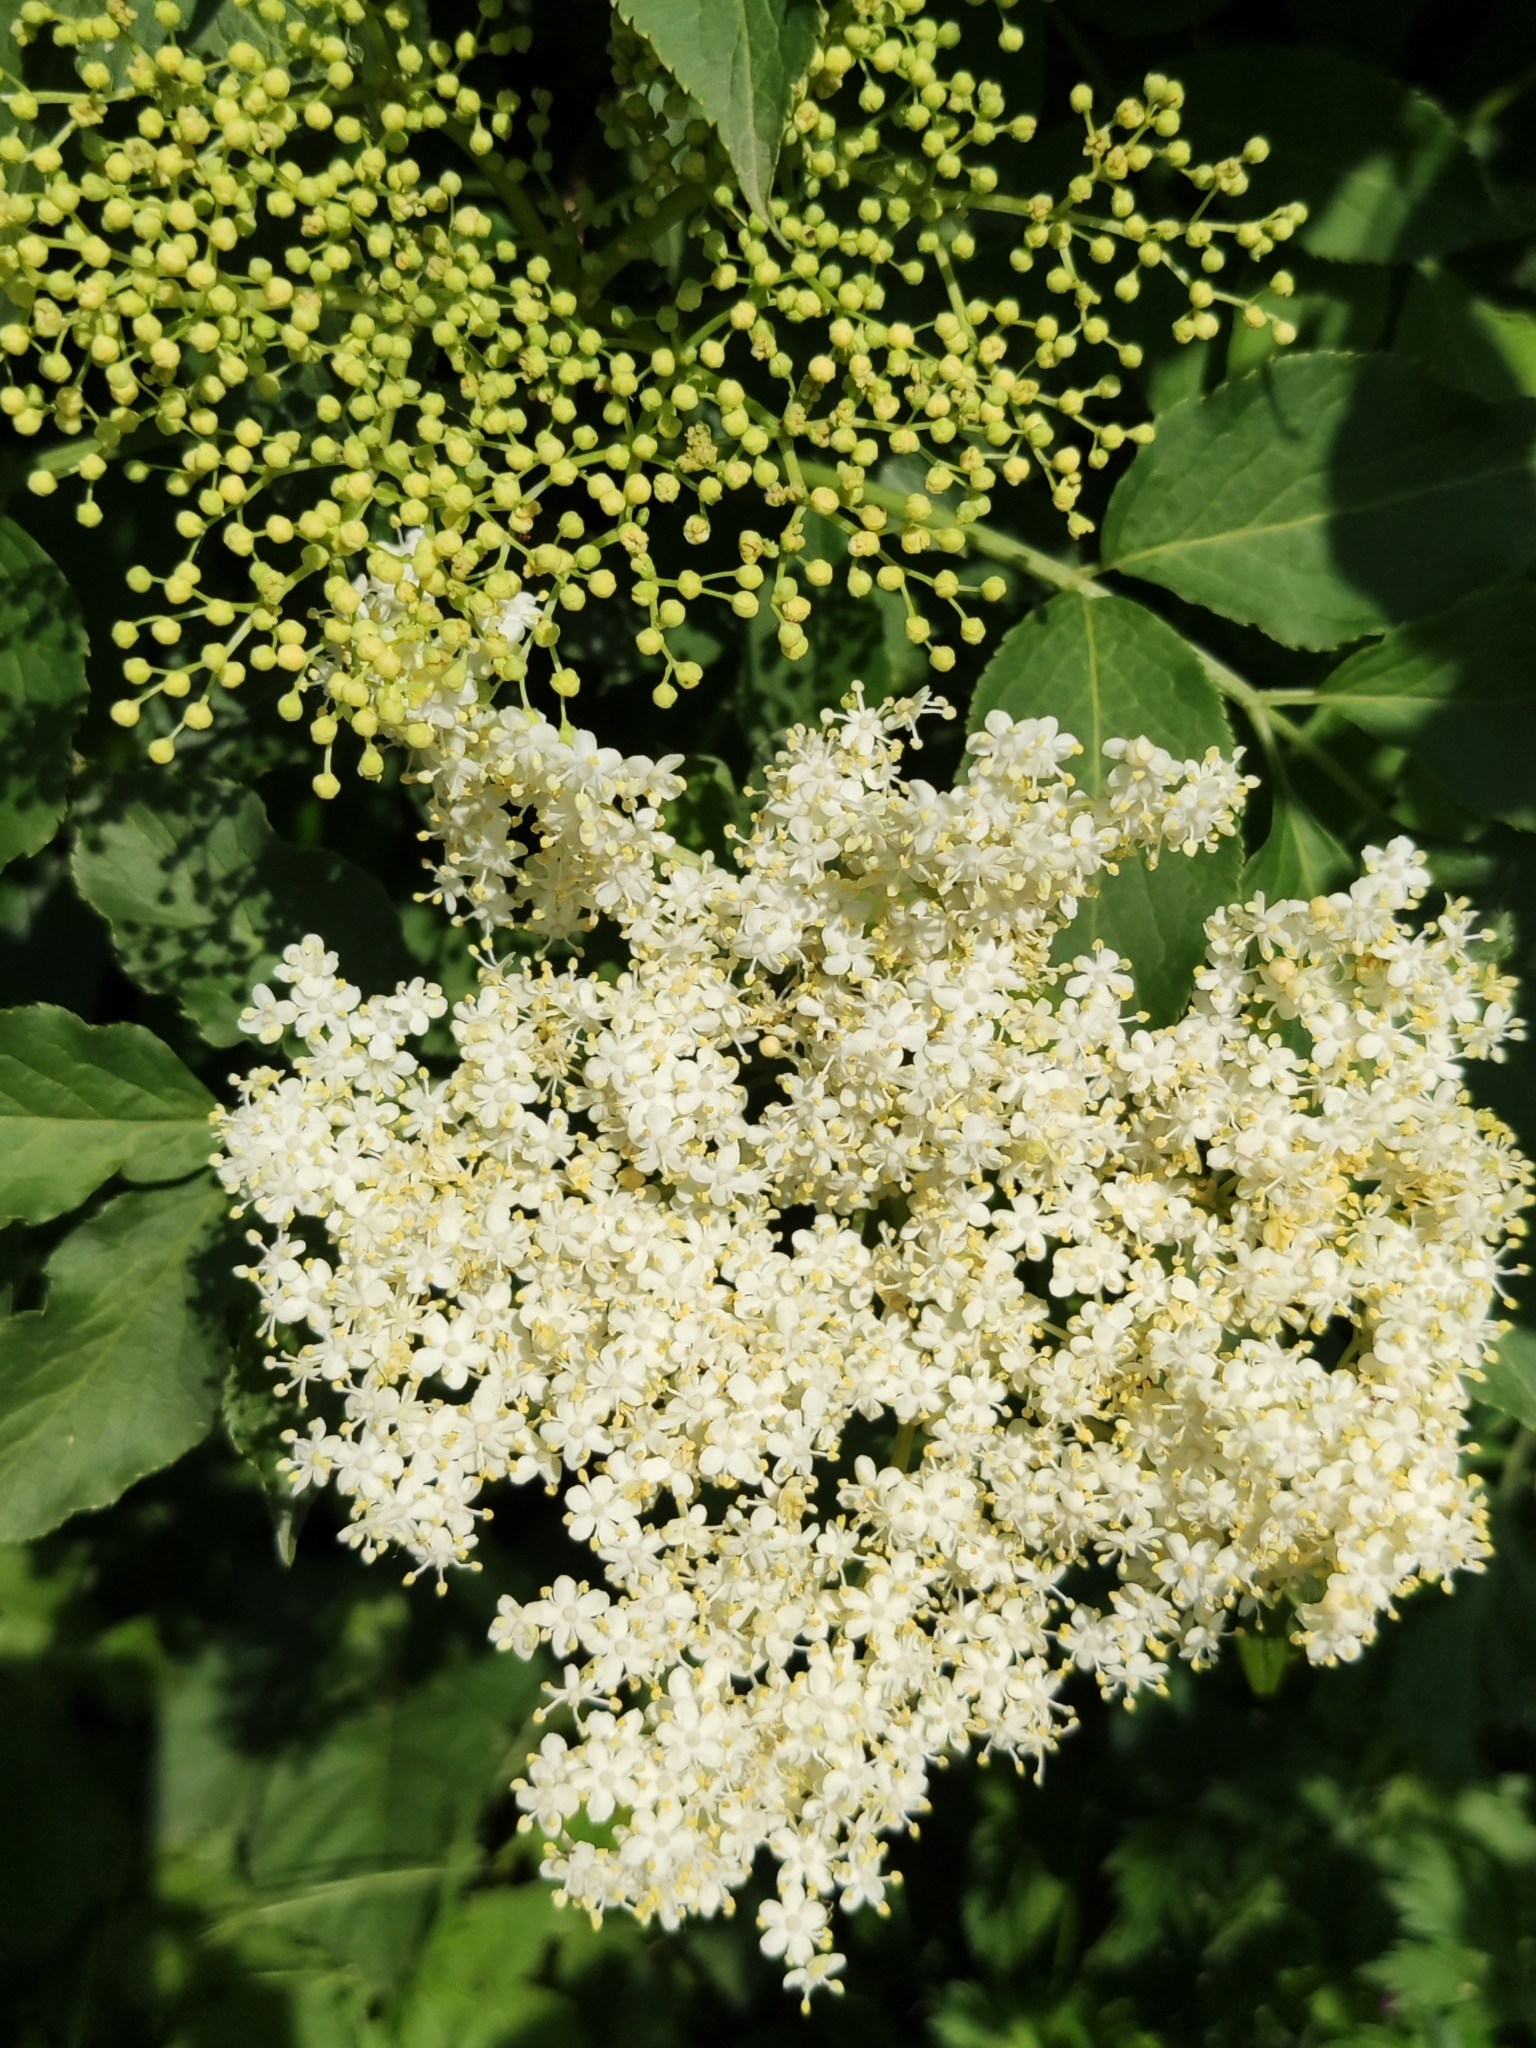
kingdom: Plantae
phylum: Tracheophyta
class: Magnoliopsida
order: Dipsacales
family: Viburnaceae
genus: Sambucus
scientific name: Sambucus nigra
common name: Elder
